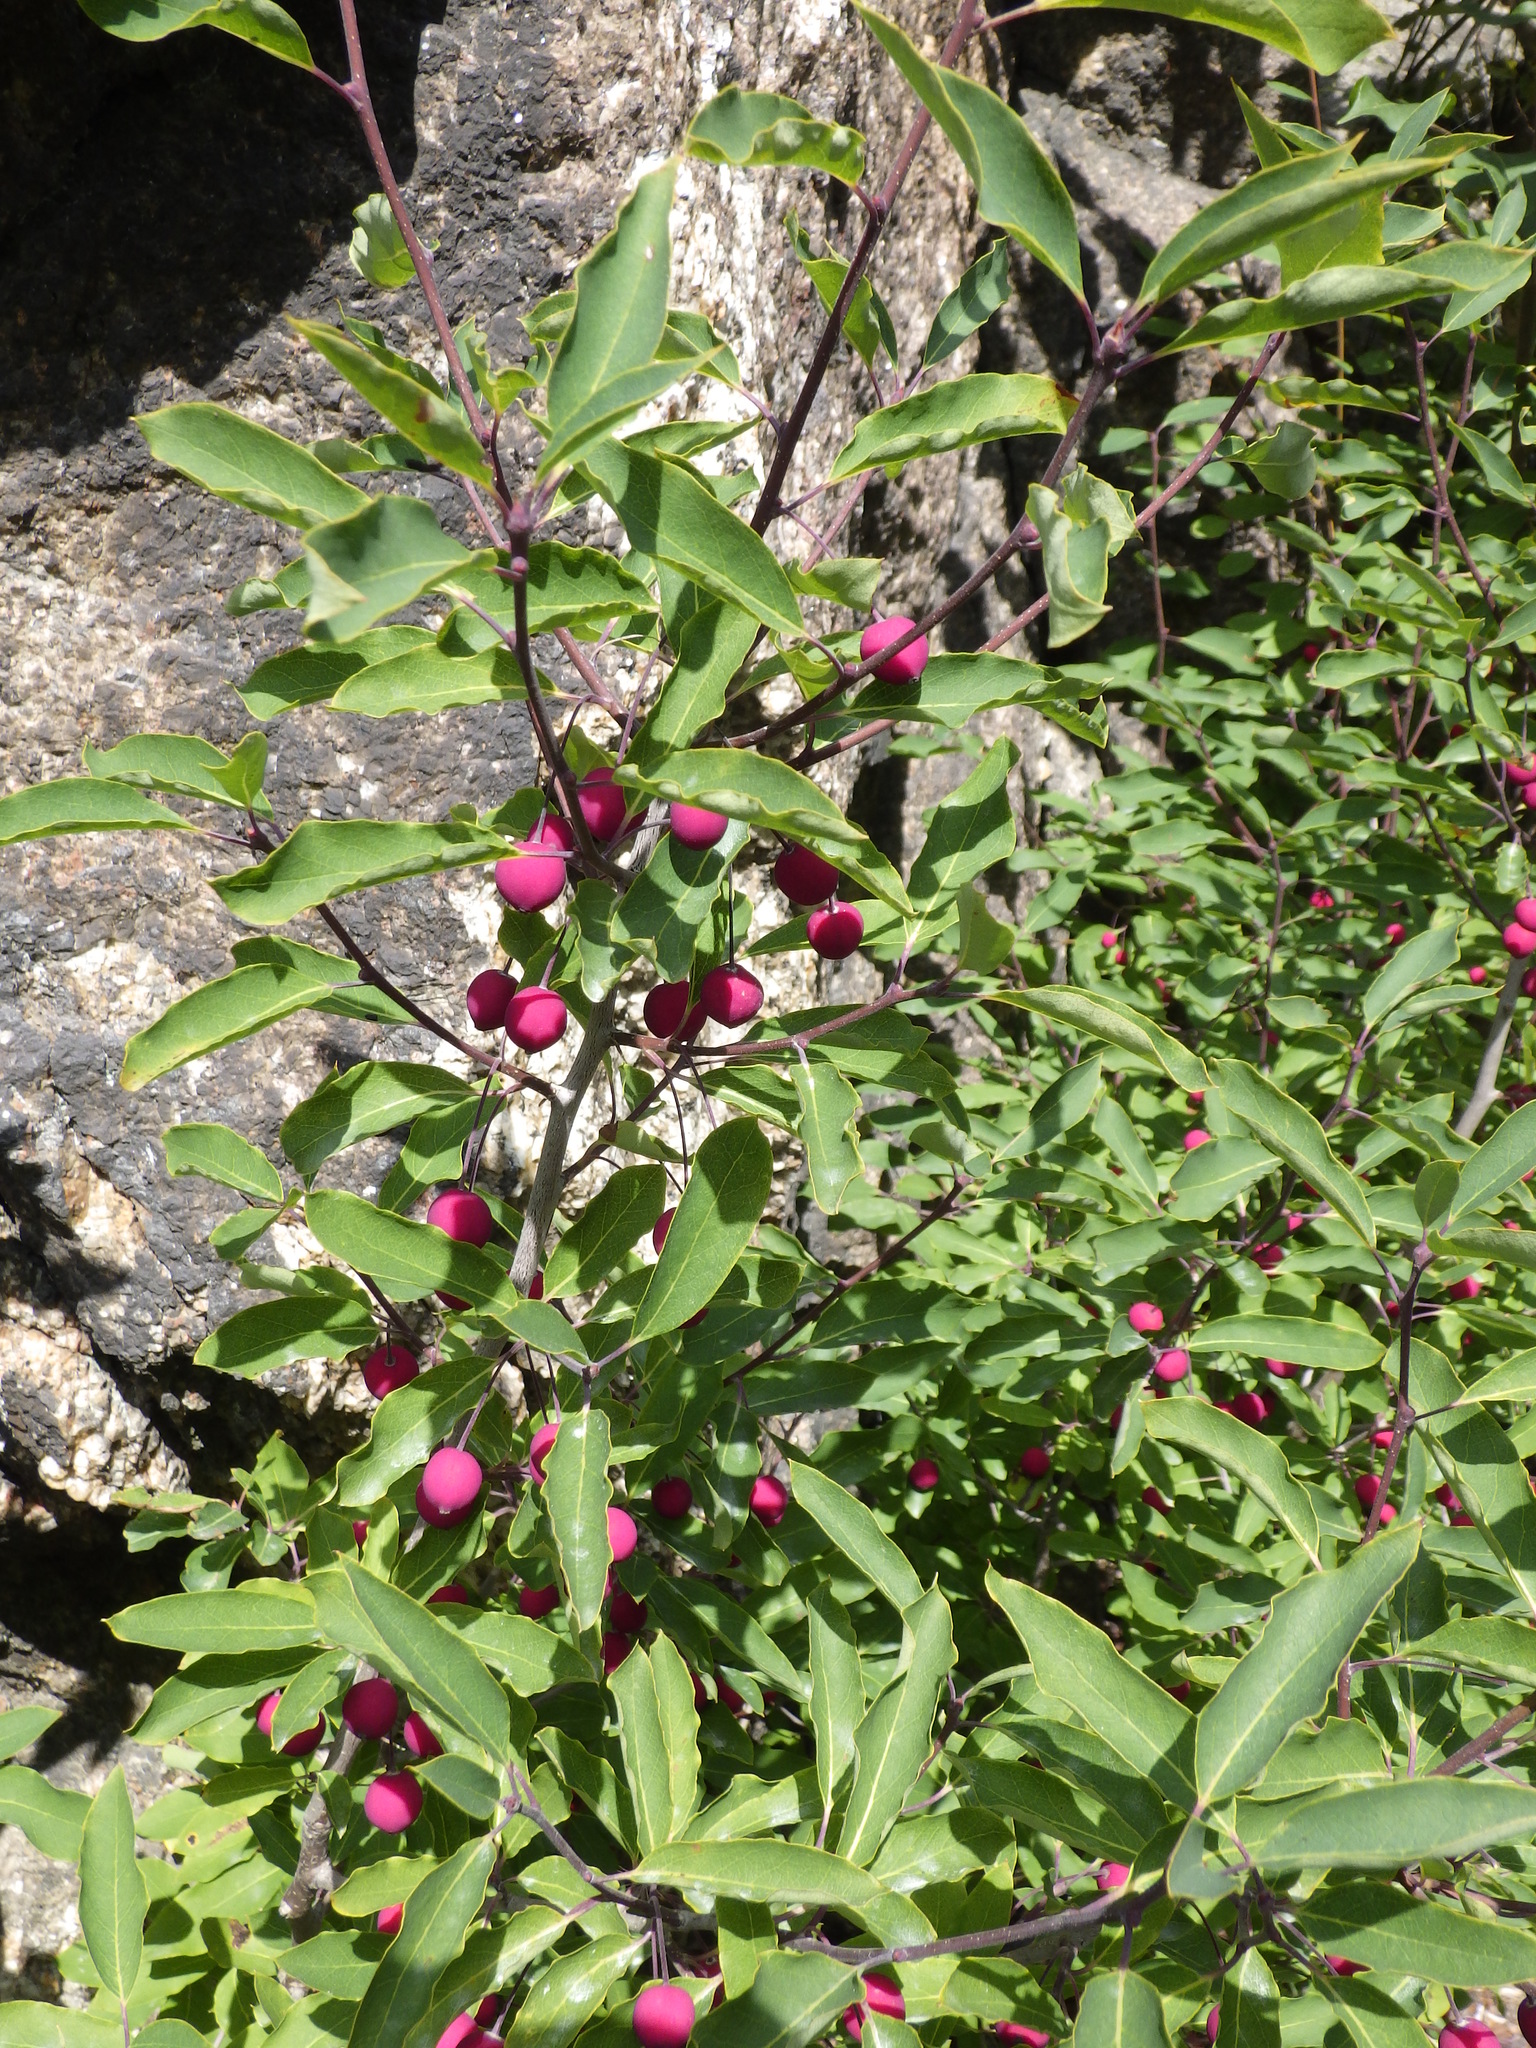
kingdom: Plantae
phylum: Tracheophyta
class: Magnoliopsida
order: Aquifoliales
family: Aquifoliaceae
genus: Ilex
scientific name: Ilex mucronata
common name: Catberry
